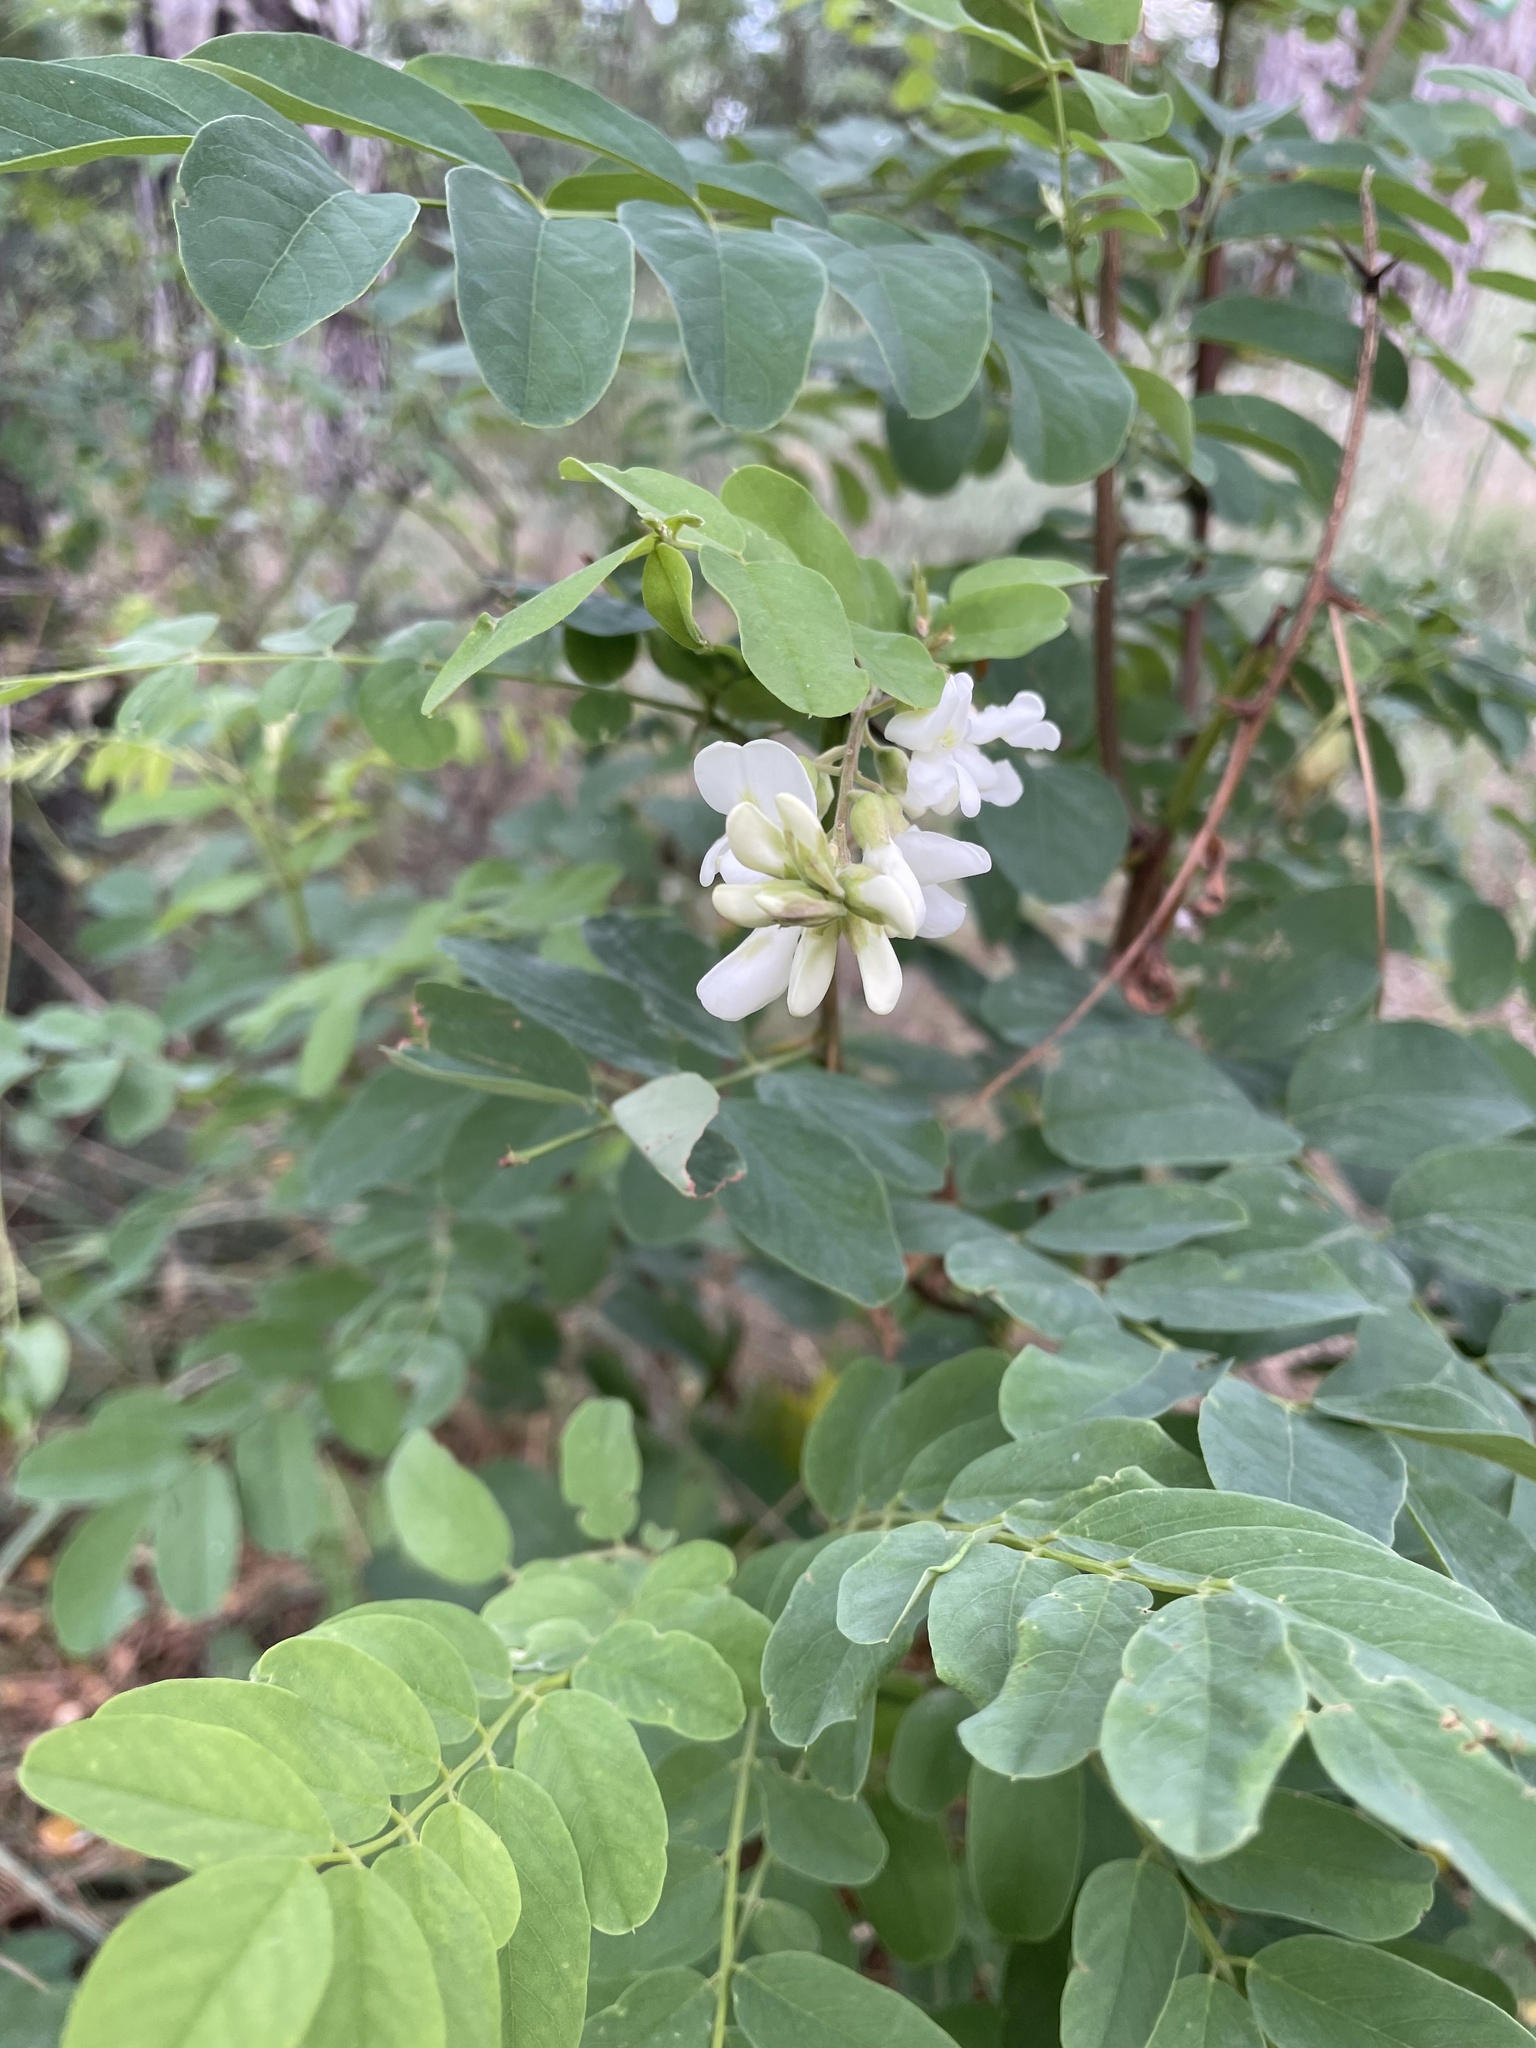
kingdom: Plantae
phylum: Tracheophyta
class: Magnoliopsida
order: Fabales
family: Fabaceae
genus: Robinia
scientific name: Robinia pseudoacacia
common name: Black locust
